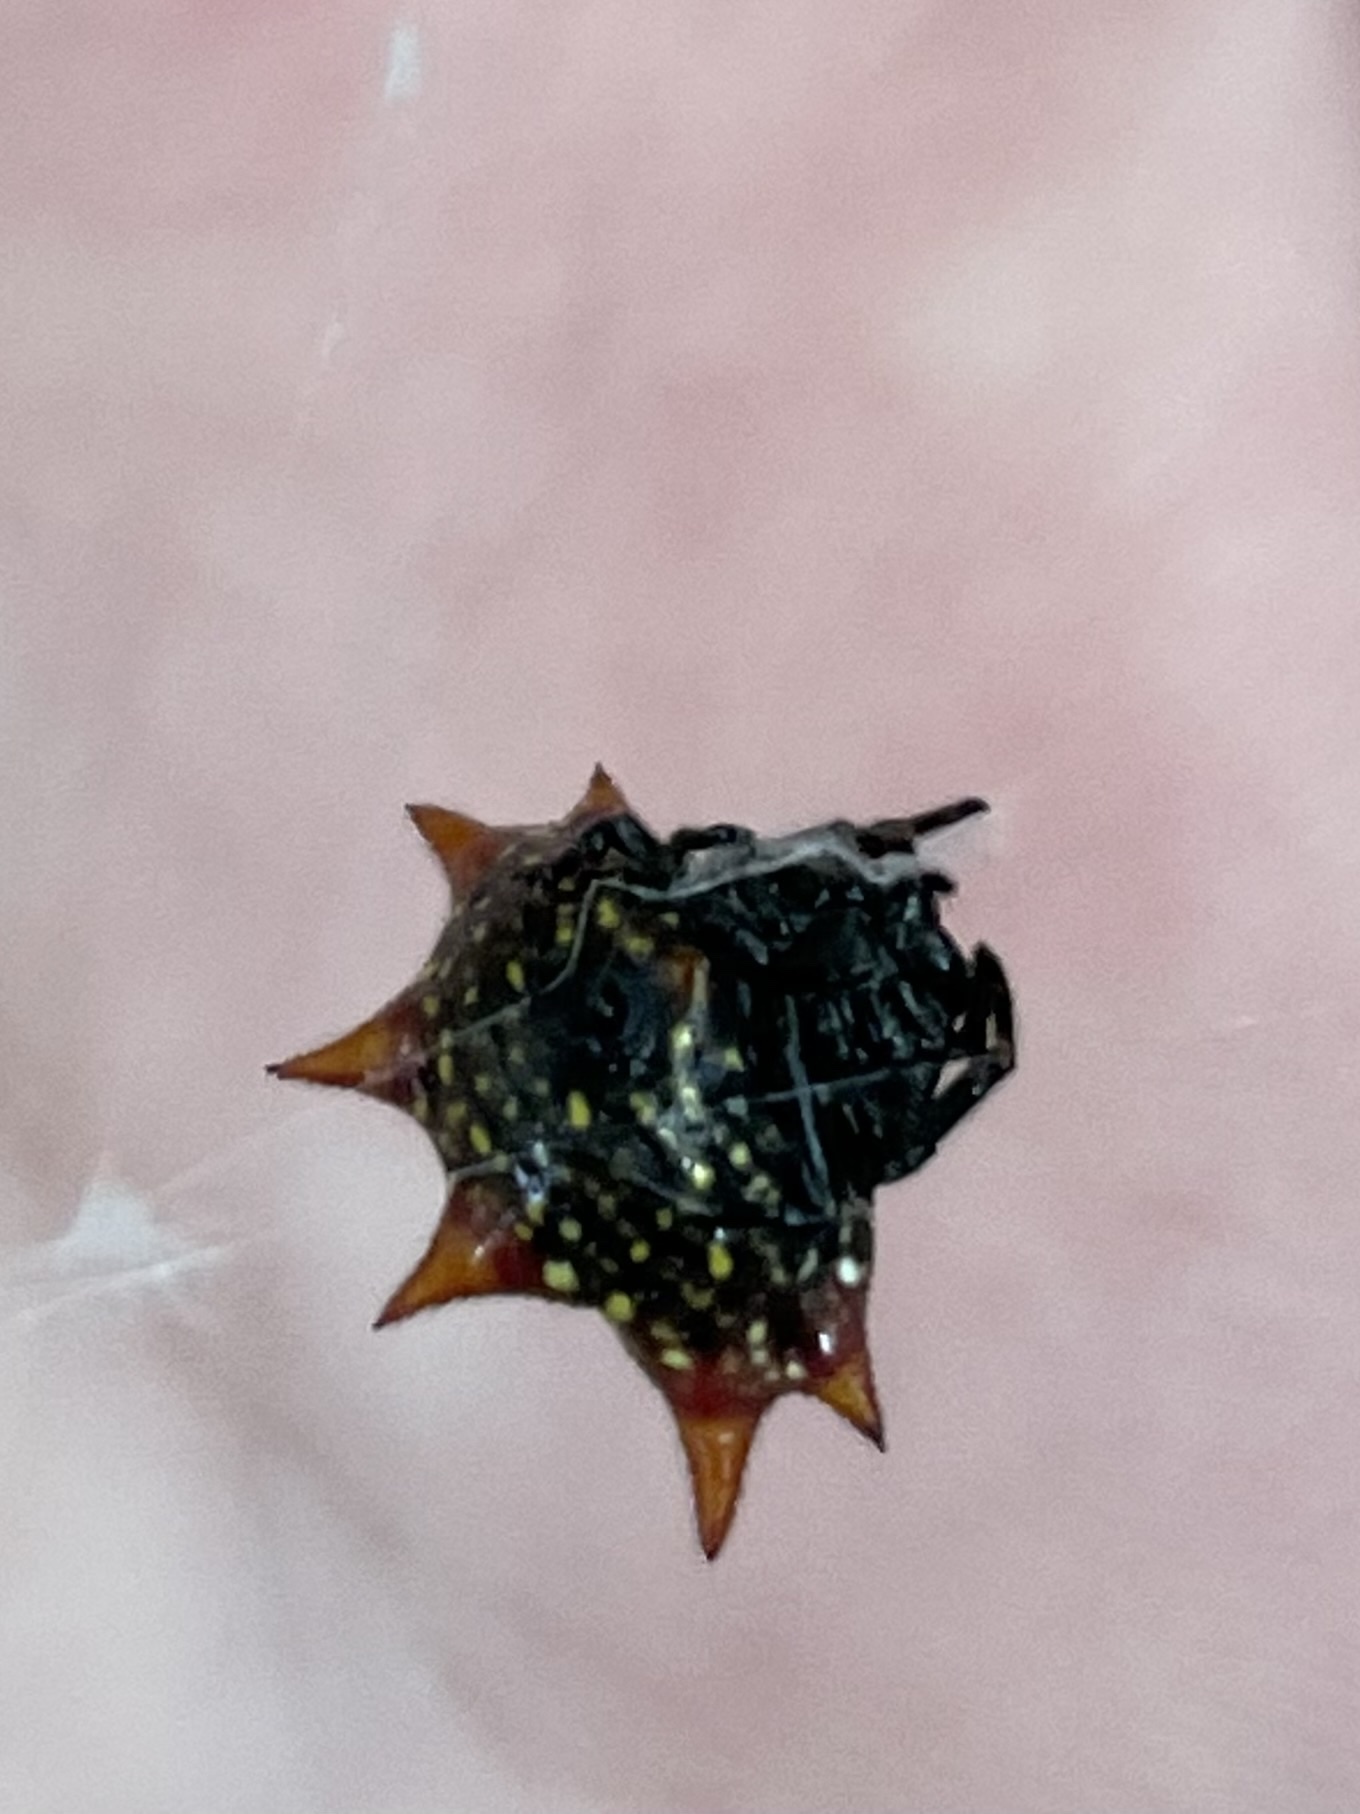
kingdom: Animalia
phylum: Arthropoda
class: Arachnida
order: Araneae
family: Araneidae
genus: Gasteracantha
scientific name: Gasteracantha cancriformis
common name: Orb weavers
